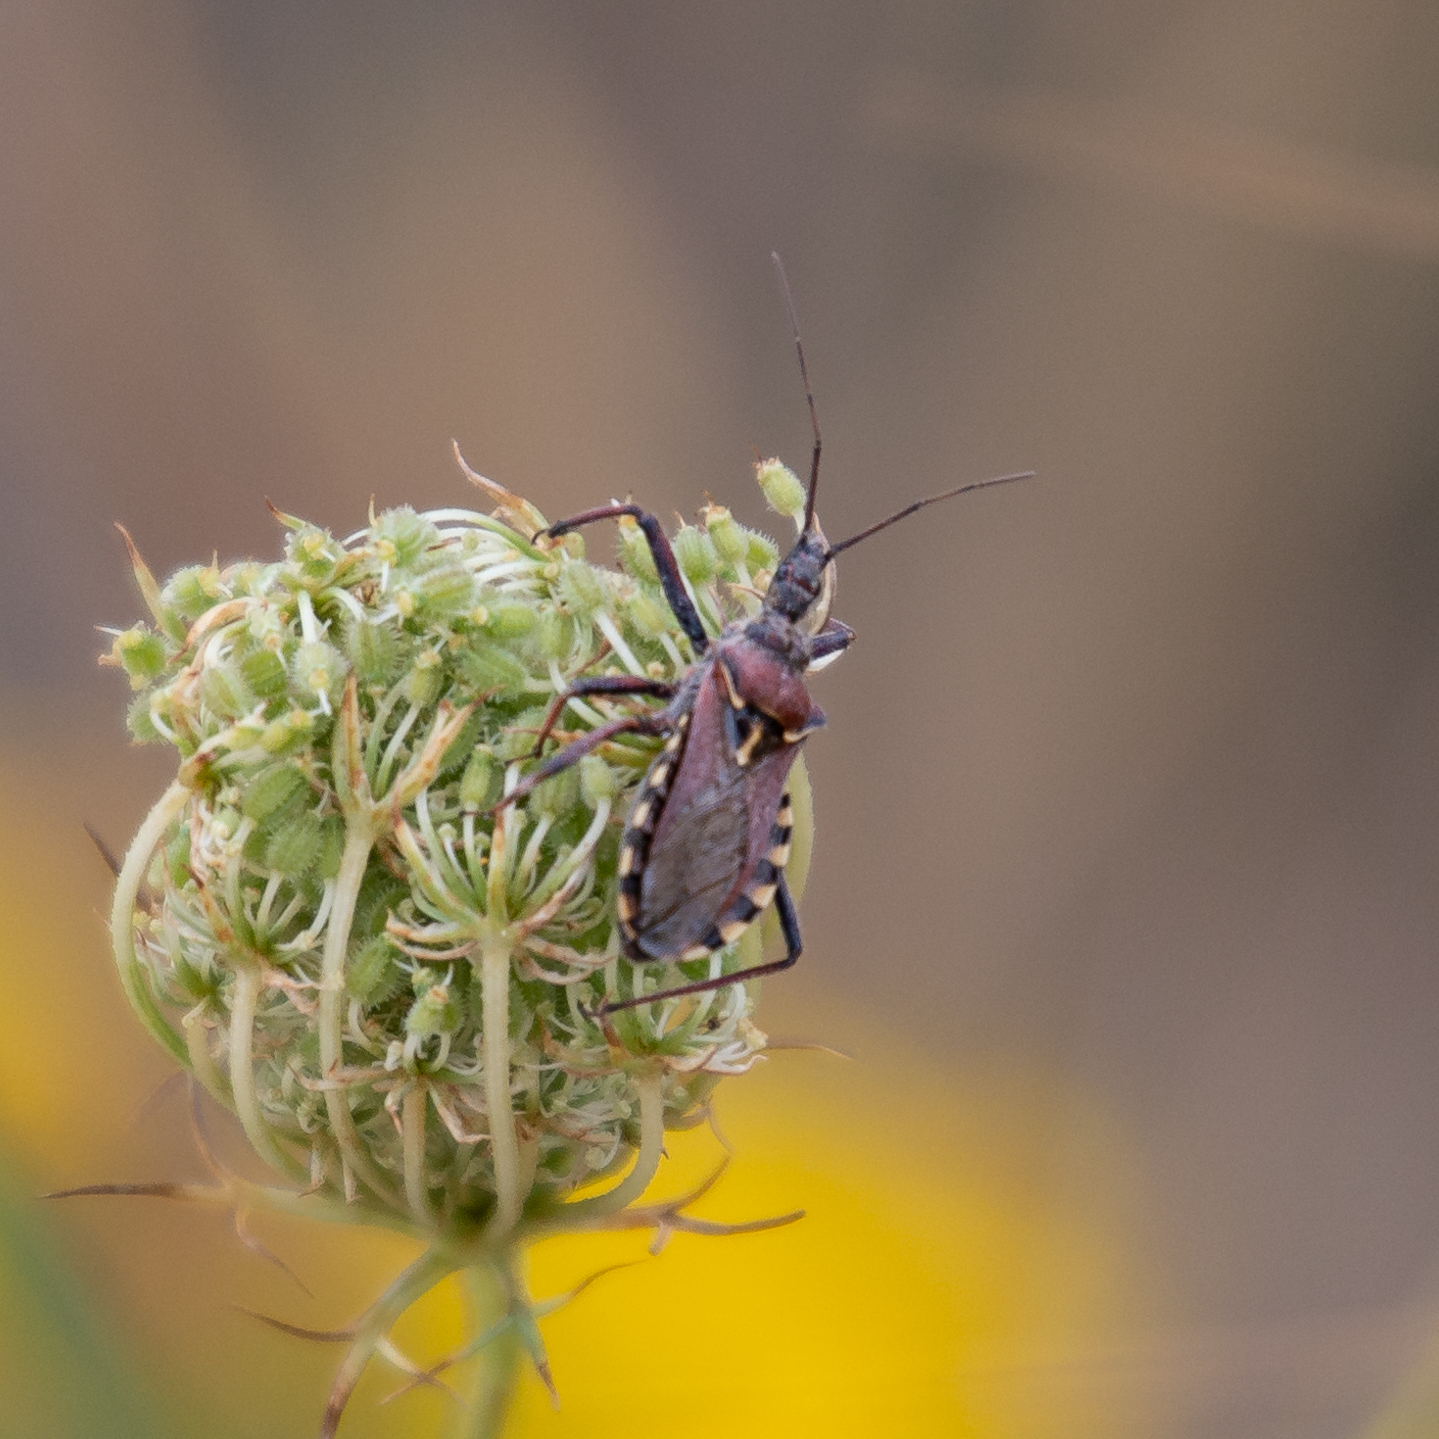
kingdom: Animalia
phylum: Arthropoda
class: Insecta
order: Hemiptera
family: Reduviidae
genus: Rhynocoris
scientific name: Rhynocoris erythropus
